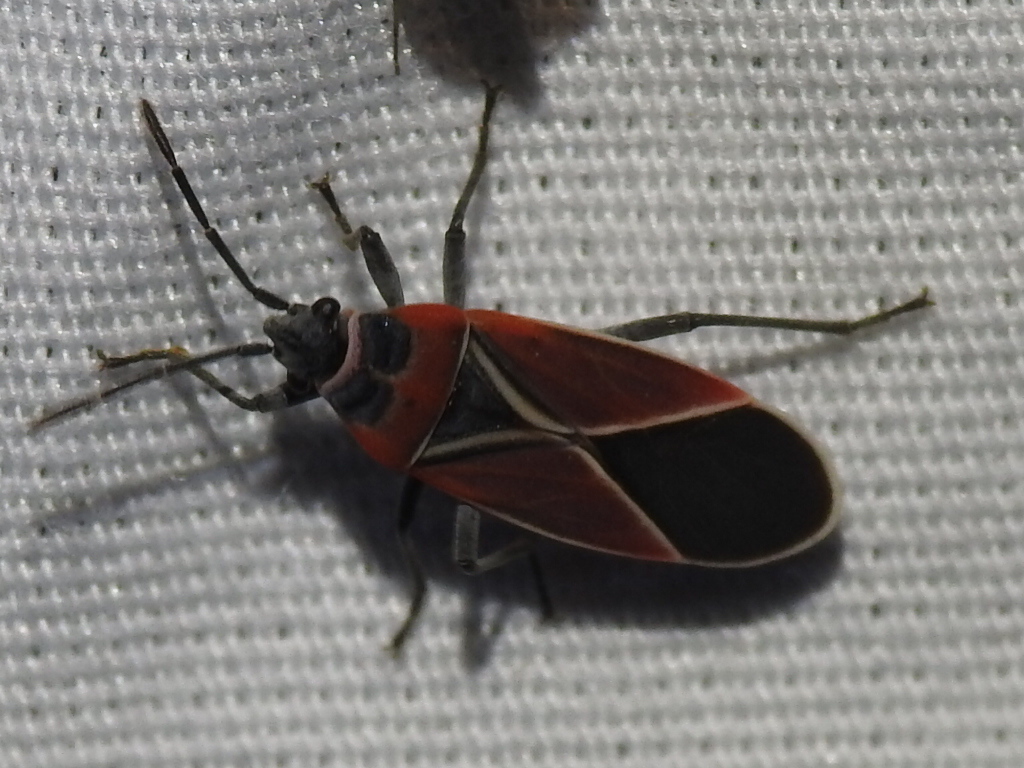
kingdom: Animalia
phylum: Arthropoda
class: Insecta
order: Hemiptera
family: Lygaeidae
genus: Neacoryphus
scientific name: Neacoryphus bicrucis
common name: Lygaeid bug
